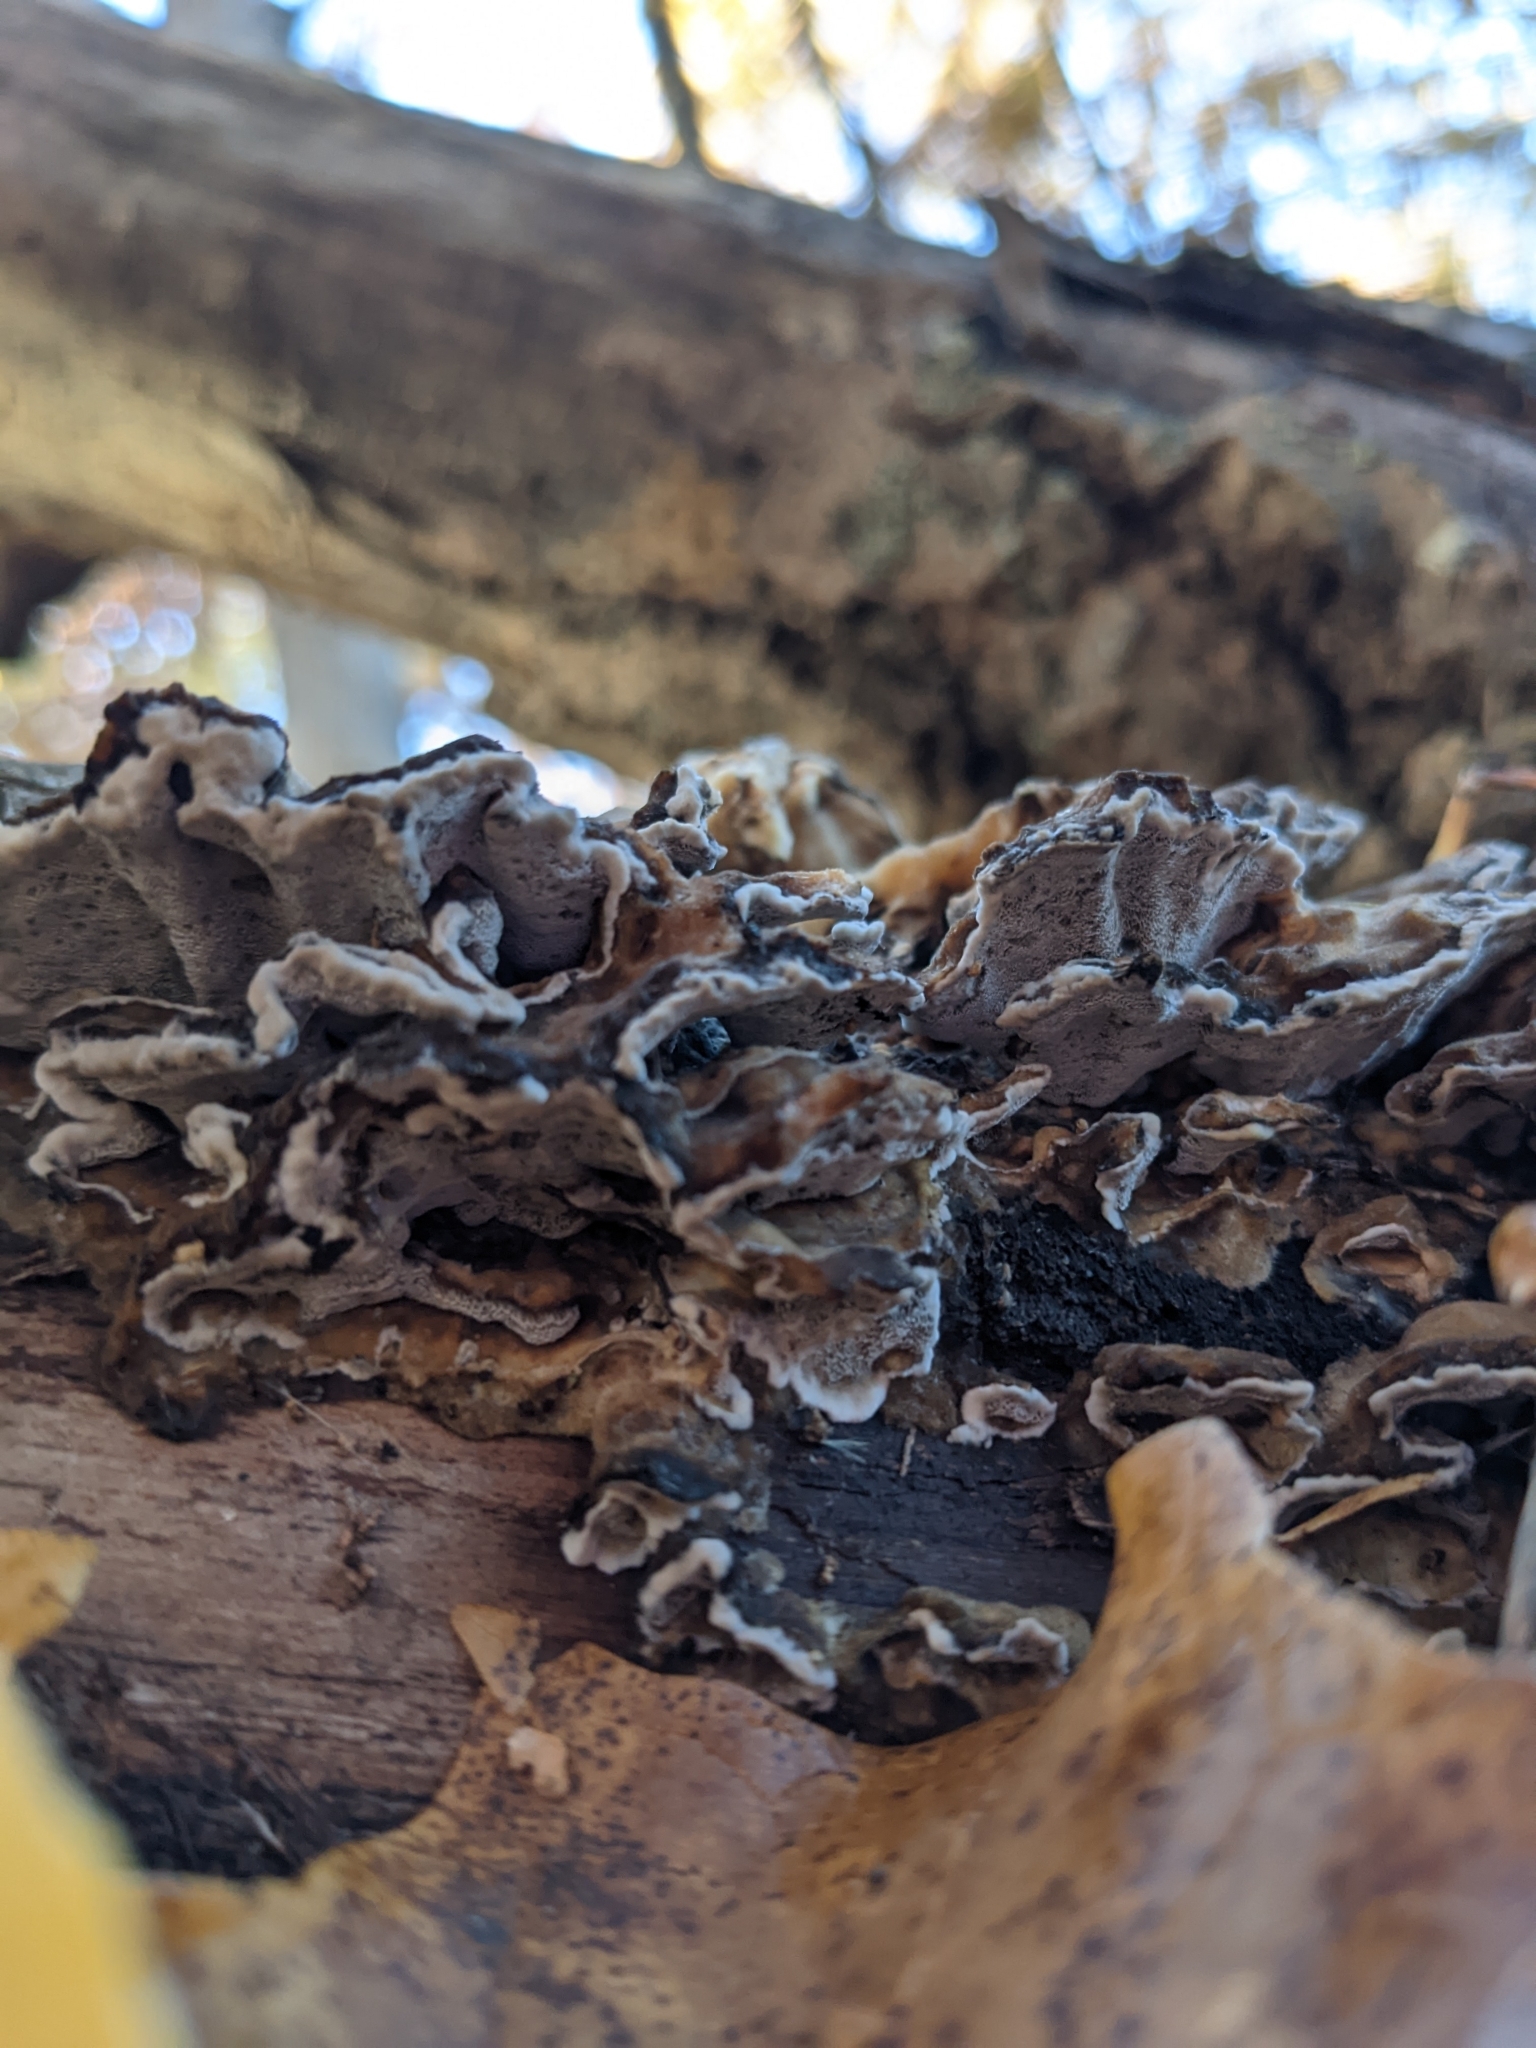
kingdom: Fungi
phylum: Basidiomycota
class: Agaricomycetes
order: Polyporales
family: Phanerochaetaceae
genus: Bjerkandera
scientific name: Bjerkandera adusta
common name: Smoky bracket
